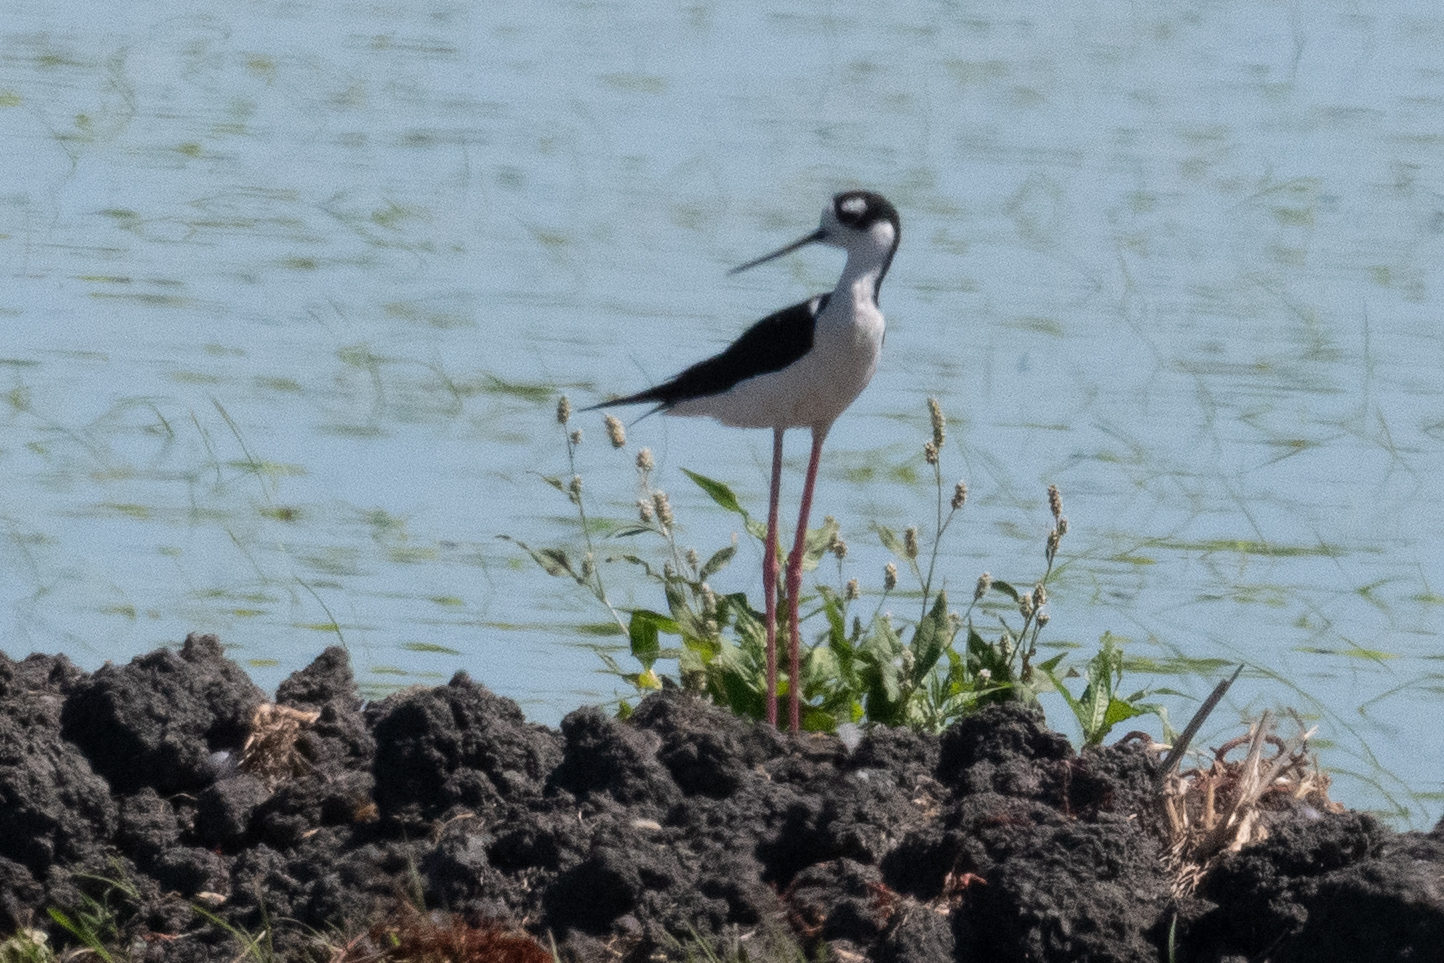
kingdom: Animalia
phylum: Chordata
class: Aves
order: Charadriiformes
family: Recurvirostridae
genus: Himantopus
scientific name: Himantopus mexicanus
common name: Black-necked stilt
